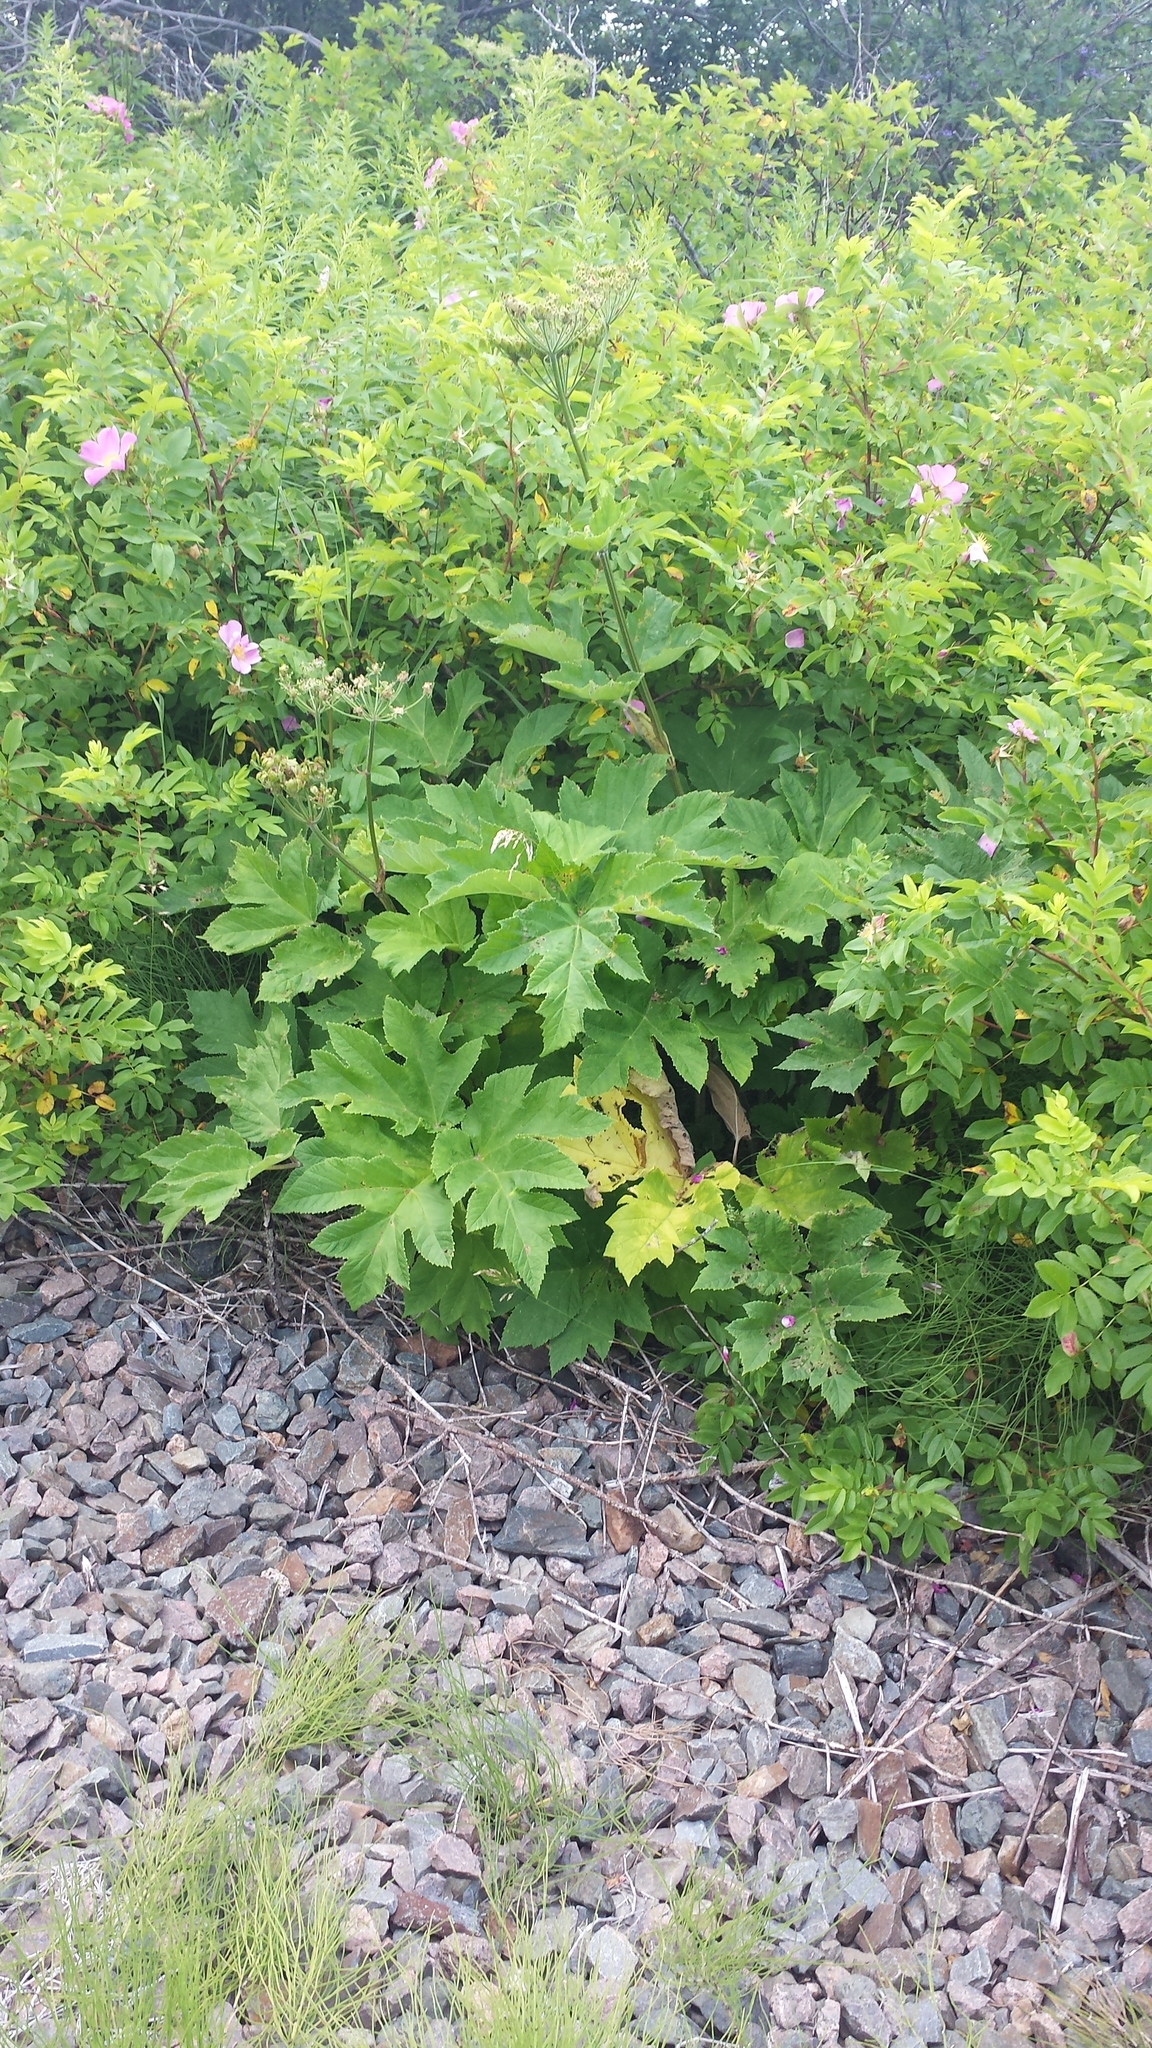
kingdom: Plantae
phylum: Tracheophyta
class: Magnoliopsida
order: Apiales
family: Apiaceae
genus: Heracleum
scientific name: Heracleum maximum
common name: American cow parsnip
